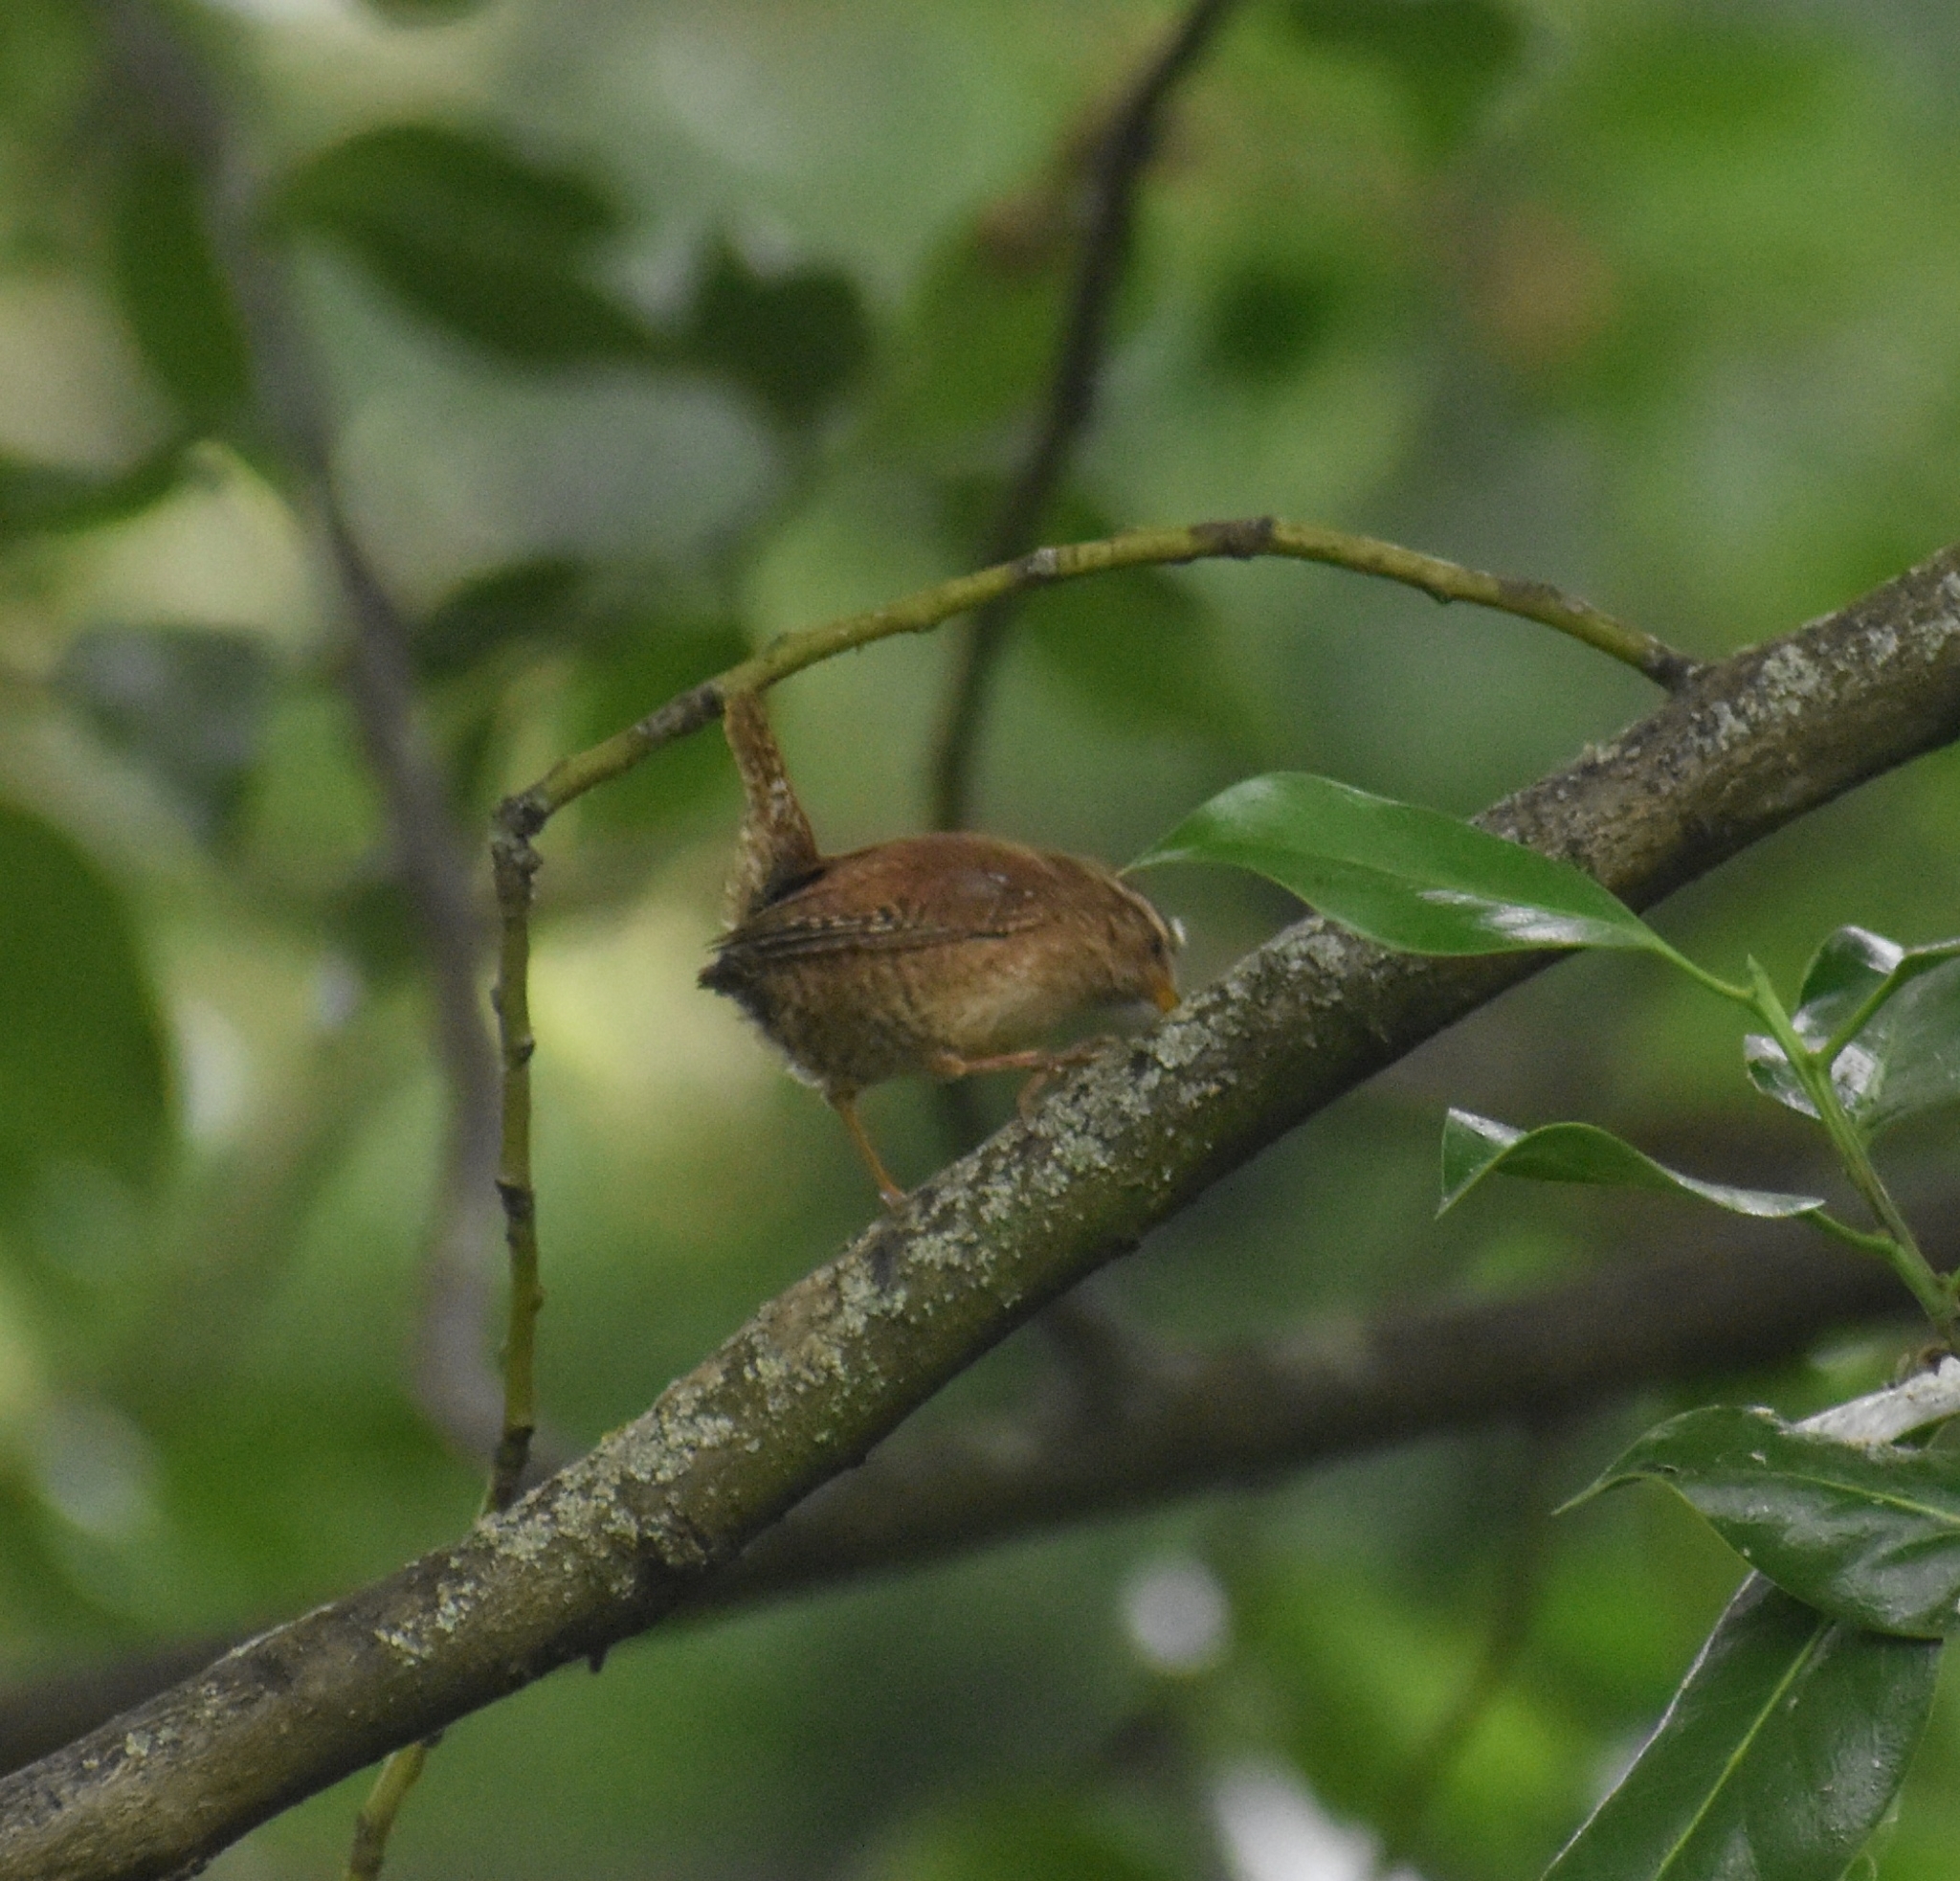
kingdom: Animalia
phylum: Chordata
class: Aves
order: Passeriformes
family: Troglodytidae
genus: Troglodytes
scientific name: Troglodytes troglodytes
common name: Eurasian wren
